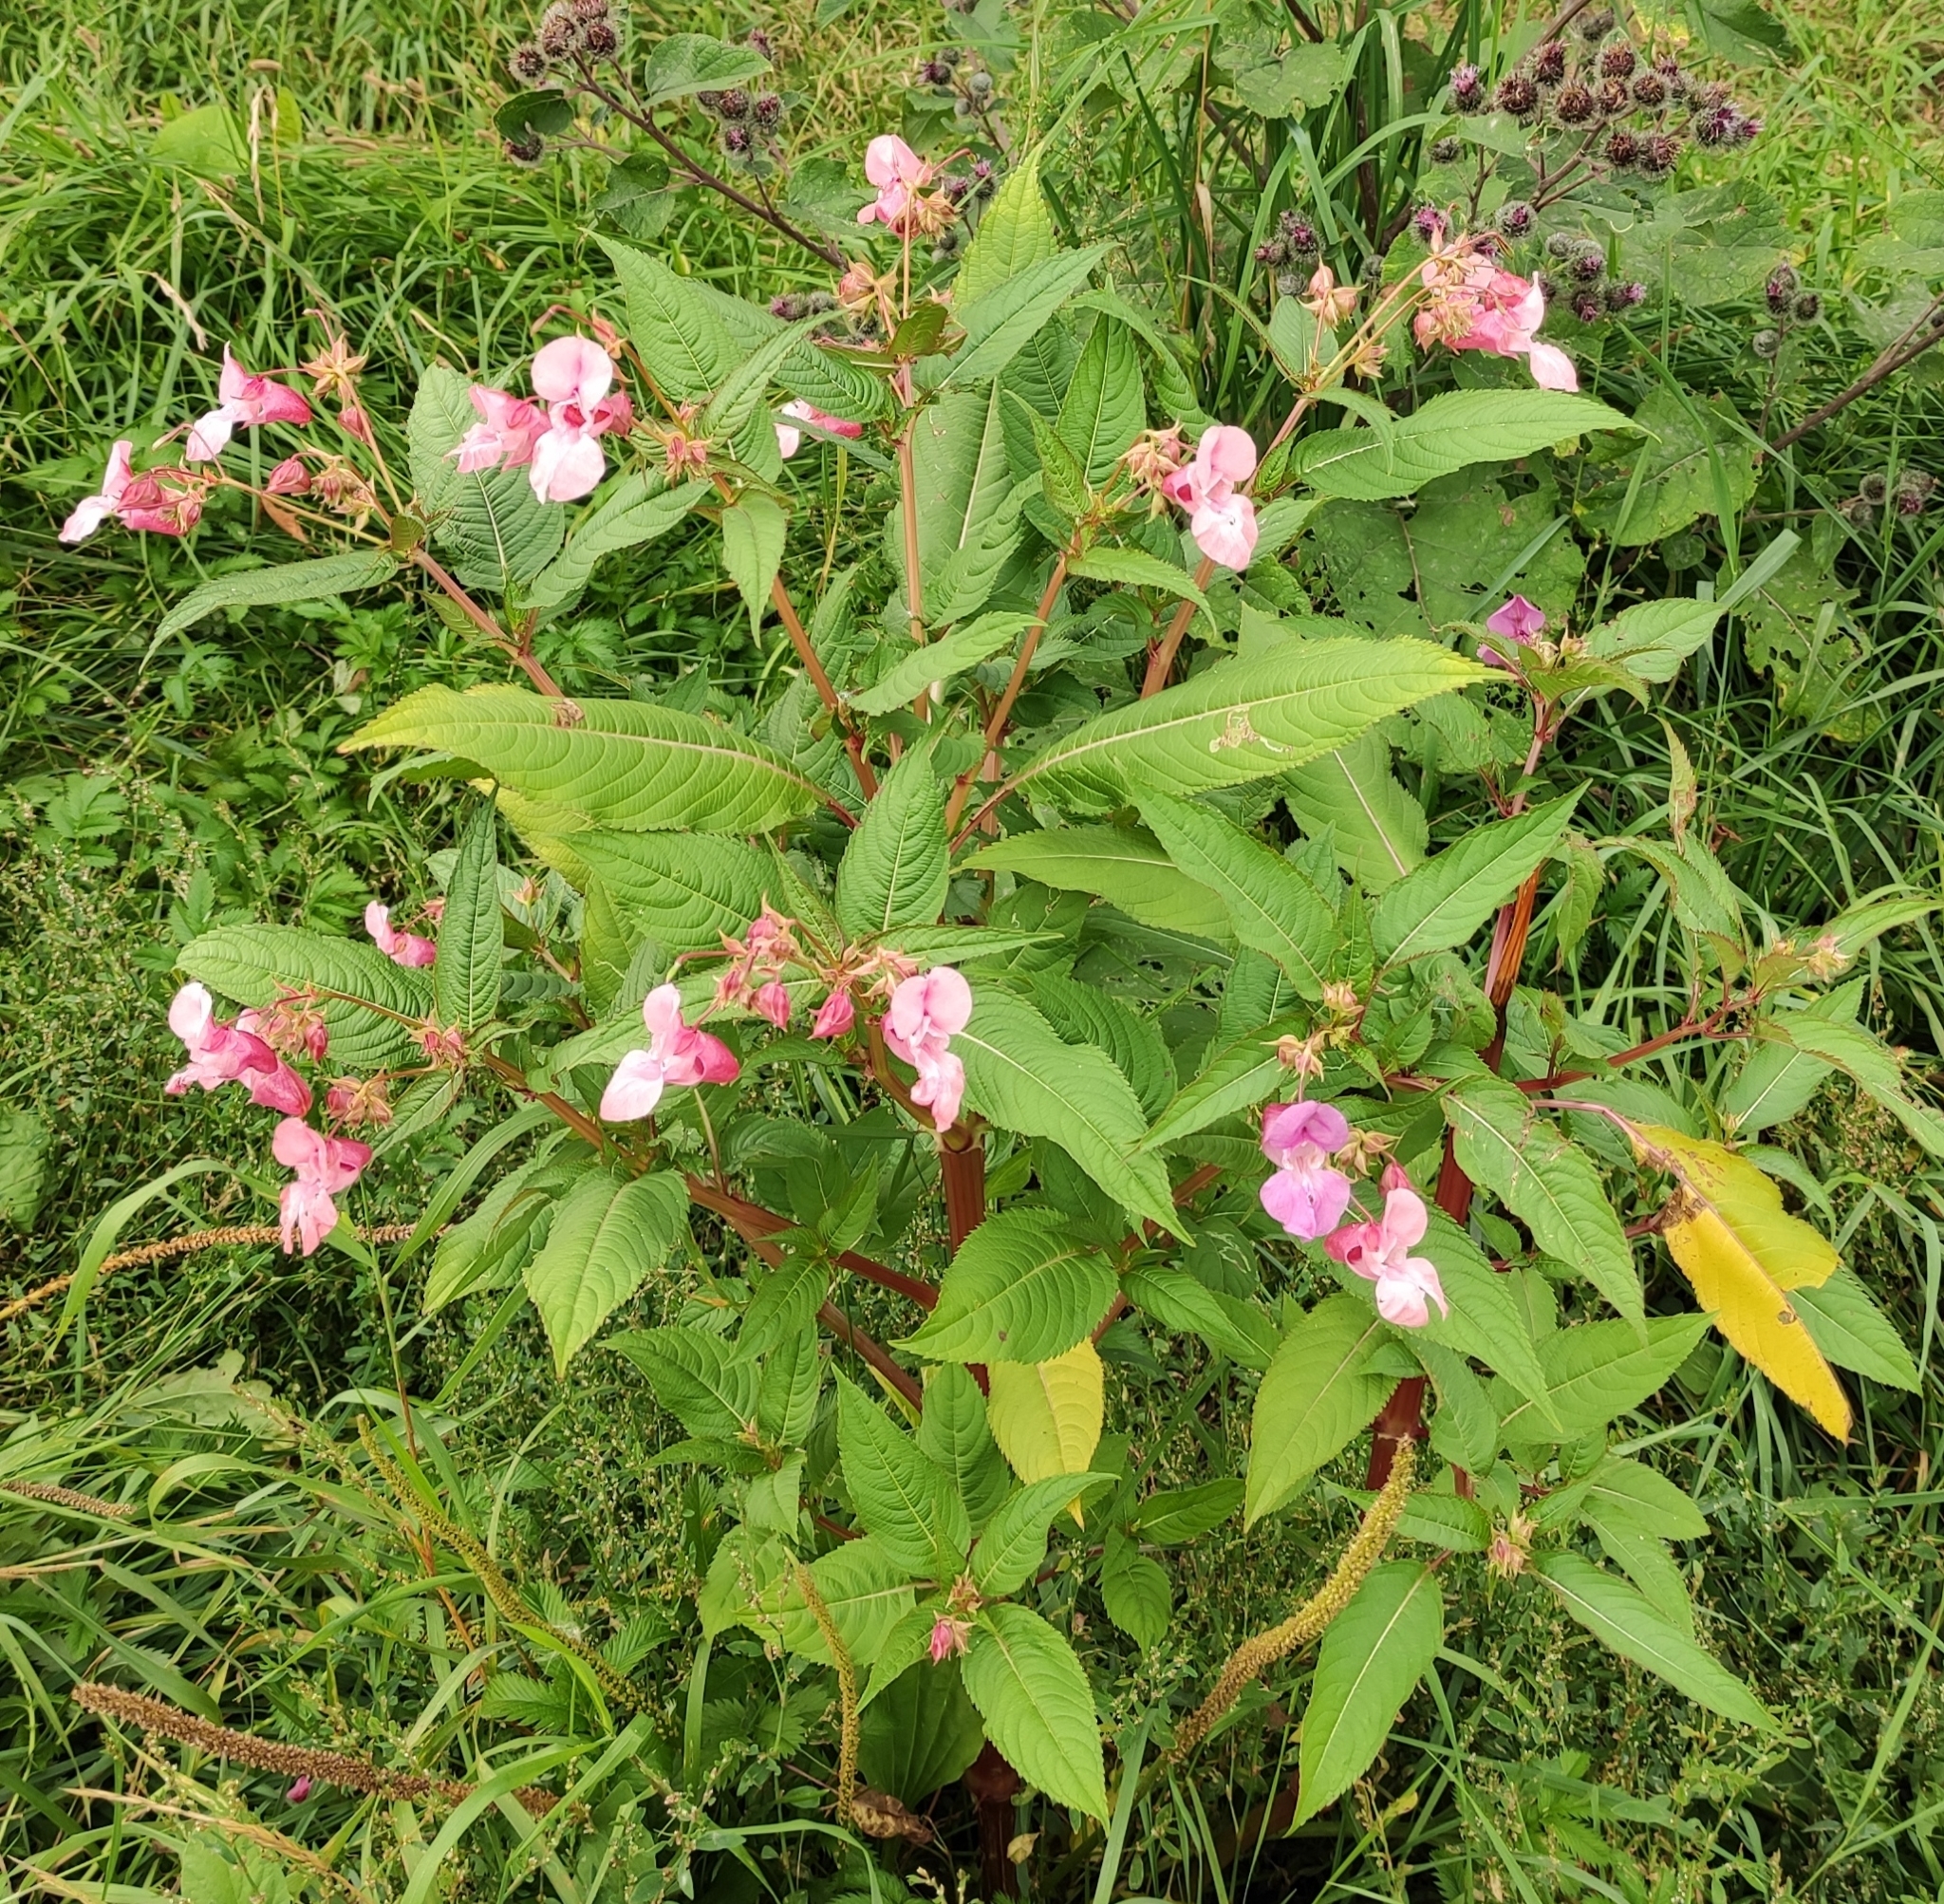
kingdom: Plantae
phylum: Tracheophyta
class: Magnoliopsida
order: Ericales
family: Balsaminaceae
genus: Impatiens
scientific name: Impatiens glandulifera
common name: Himalayan balsam
